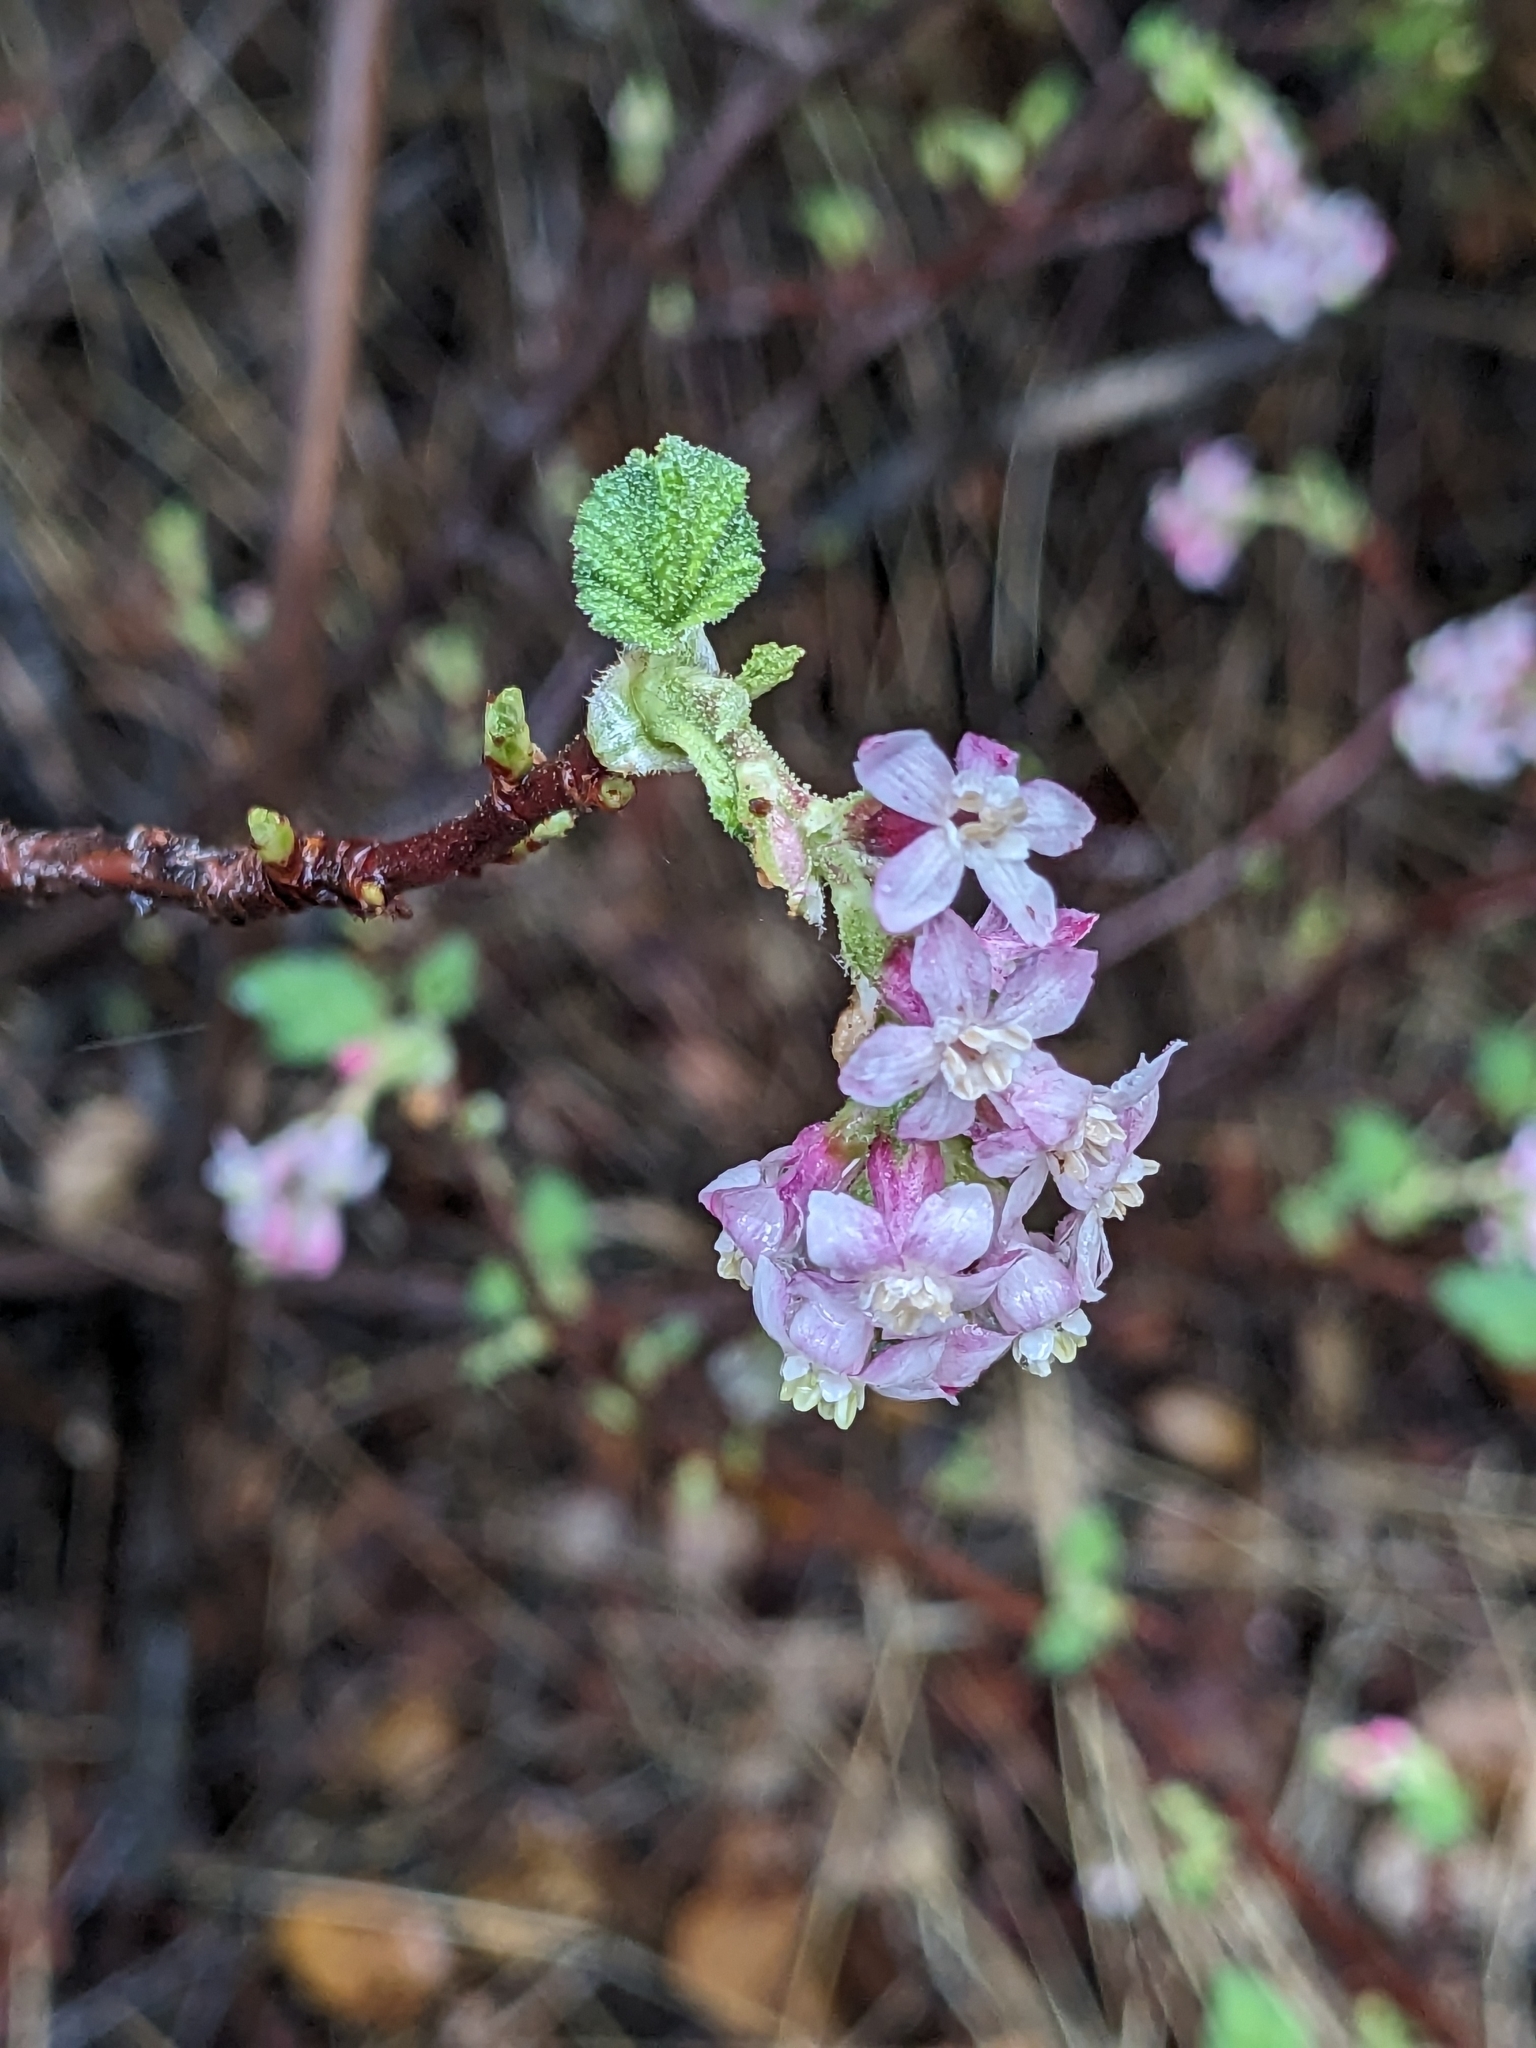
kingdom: Plantae
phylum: Tracheophyta
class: Magnoliopsida
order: Saxifragales
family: Grossulariaceae
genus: Ribes
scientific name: Ribes malvaceum
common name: Chaparral currant
